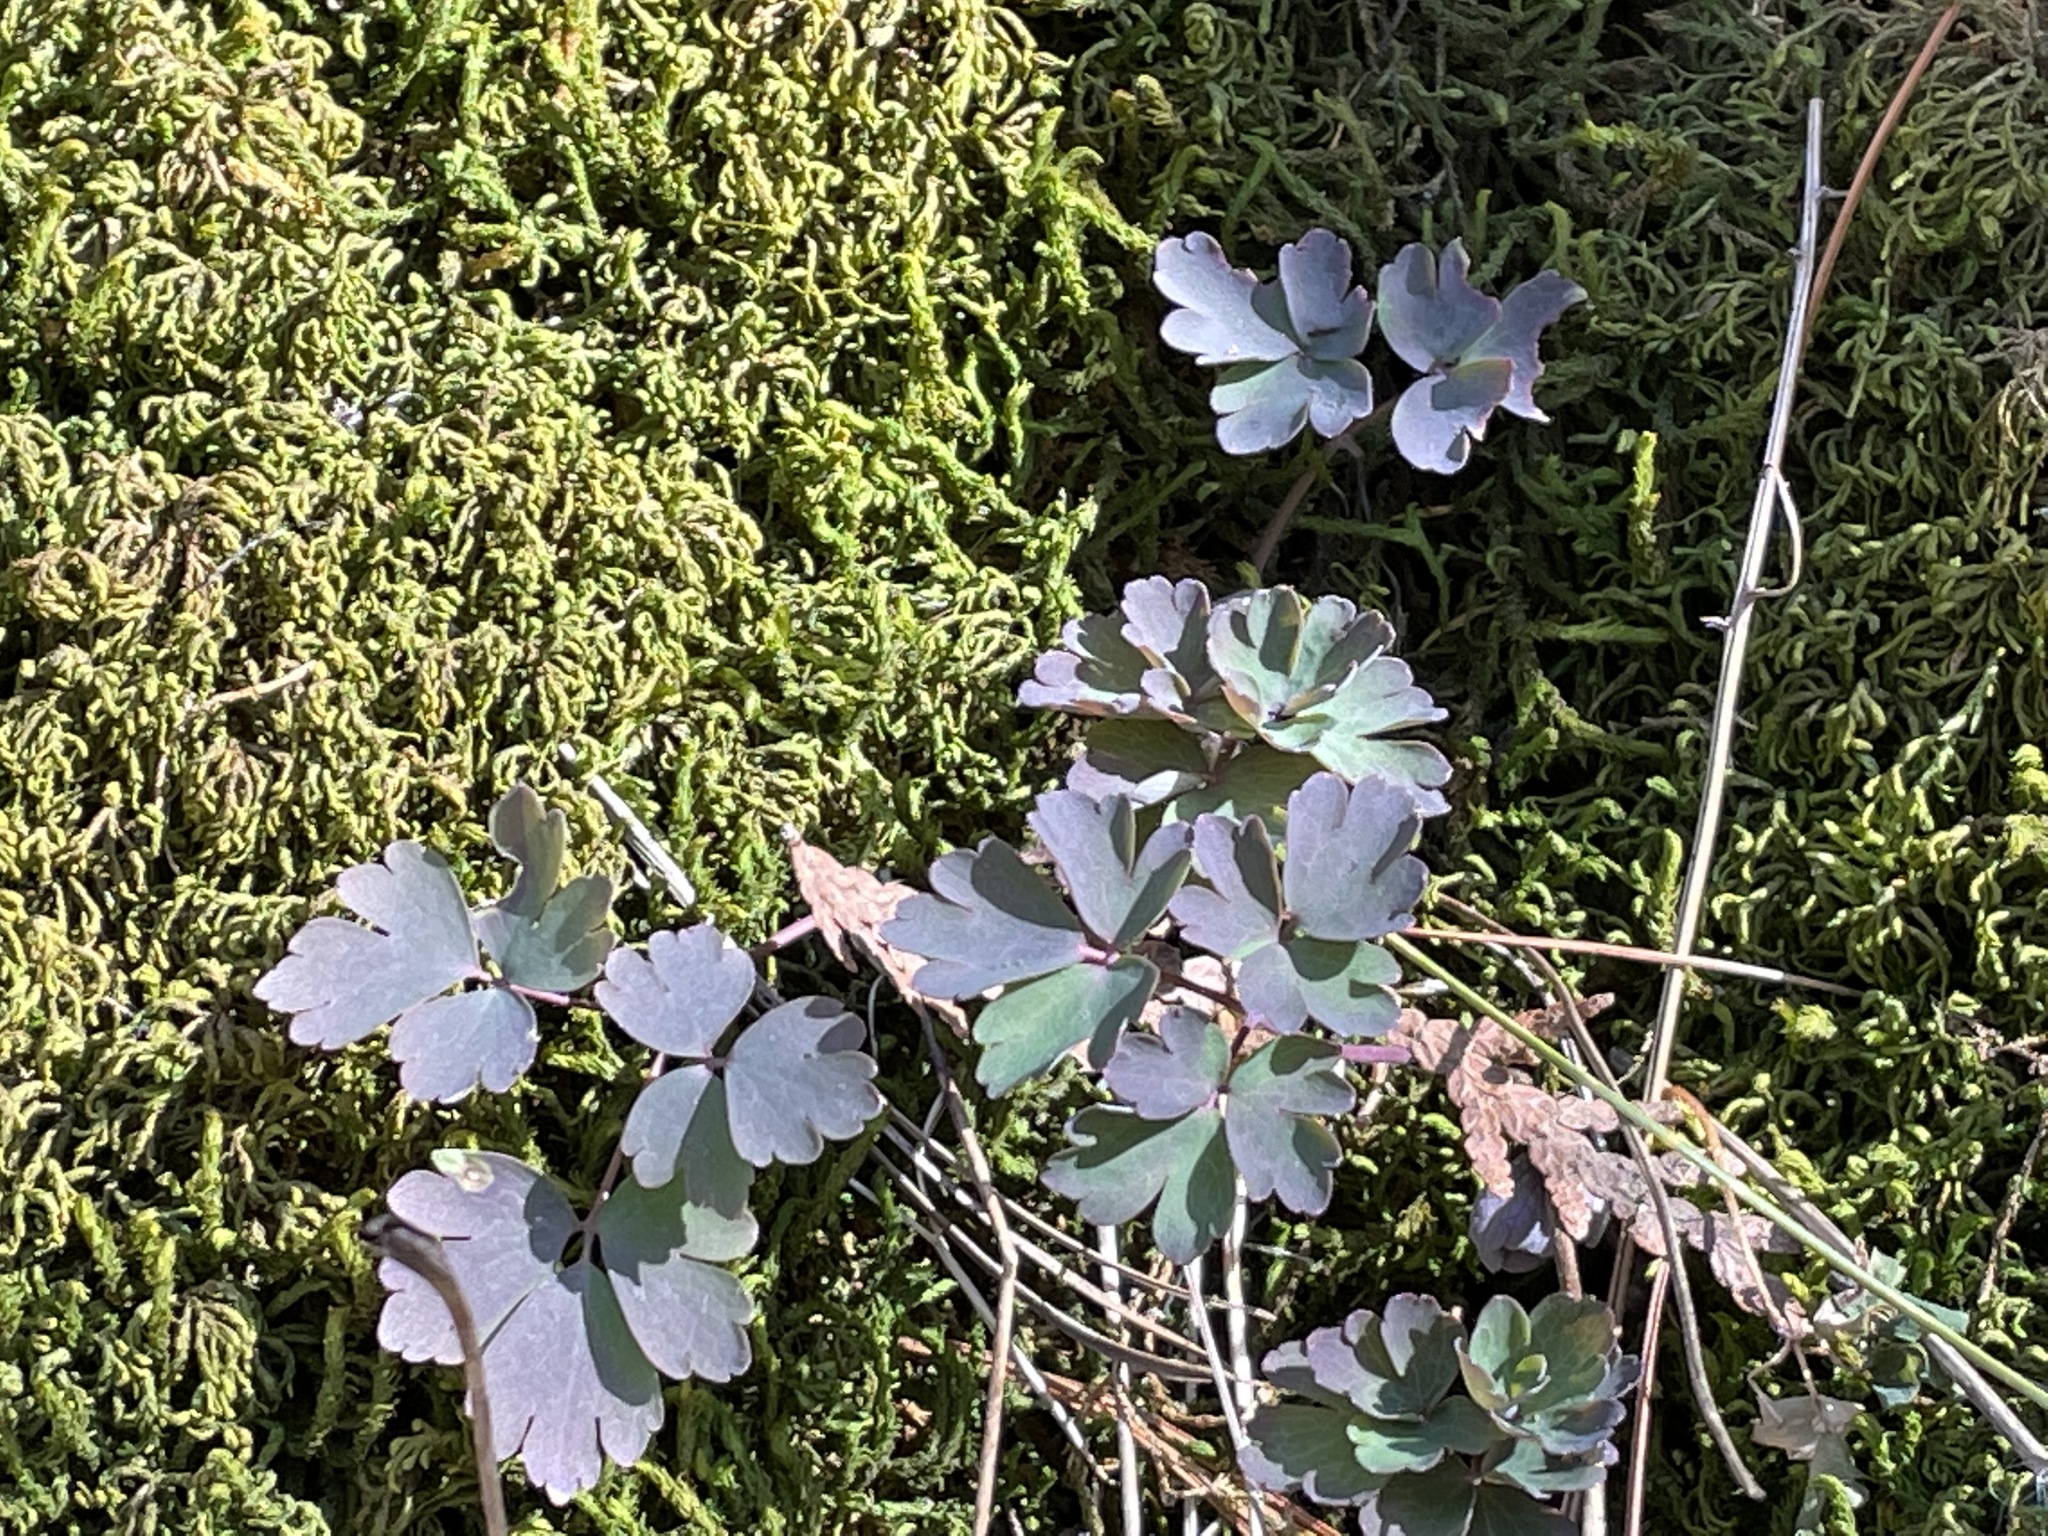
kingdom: Plantae
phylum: Tracheophyta
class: Magnoliopsida
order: Ranunculales
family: Ranunculaceae
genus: Aquilegia
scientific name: Aquilegia canadensis
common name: American columbine
